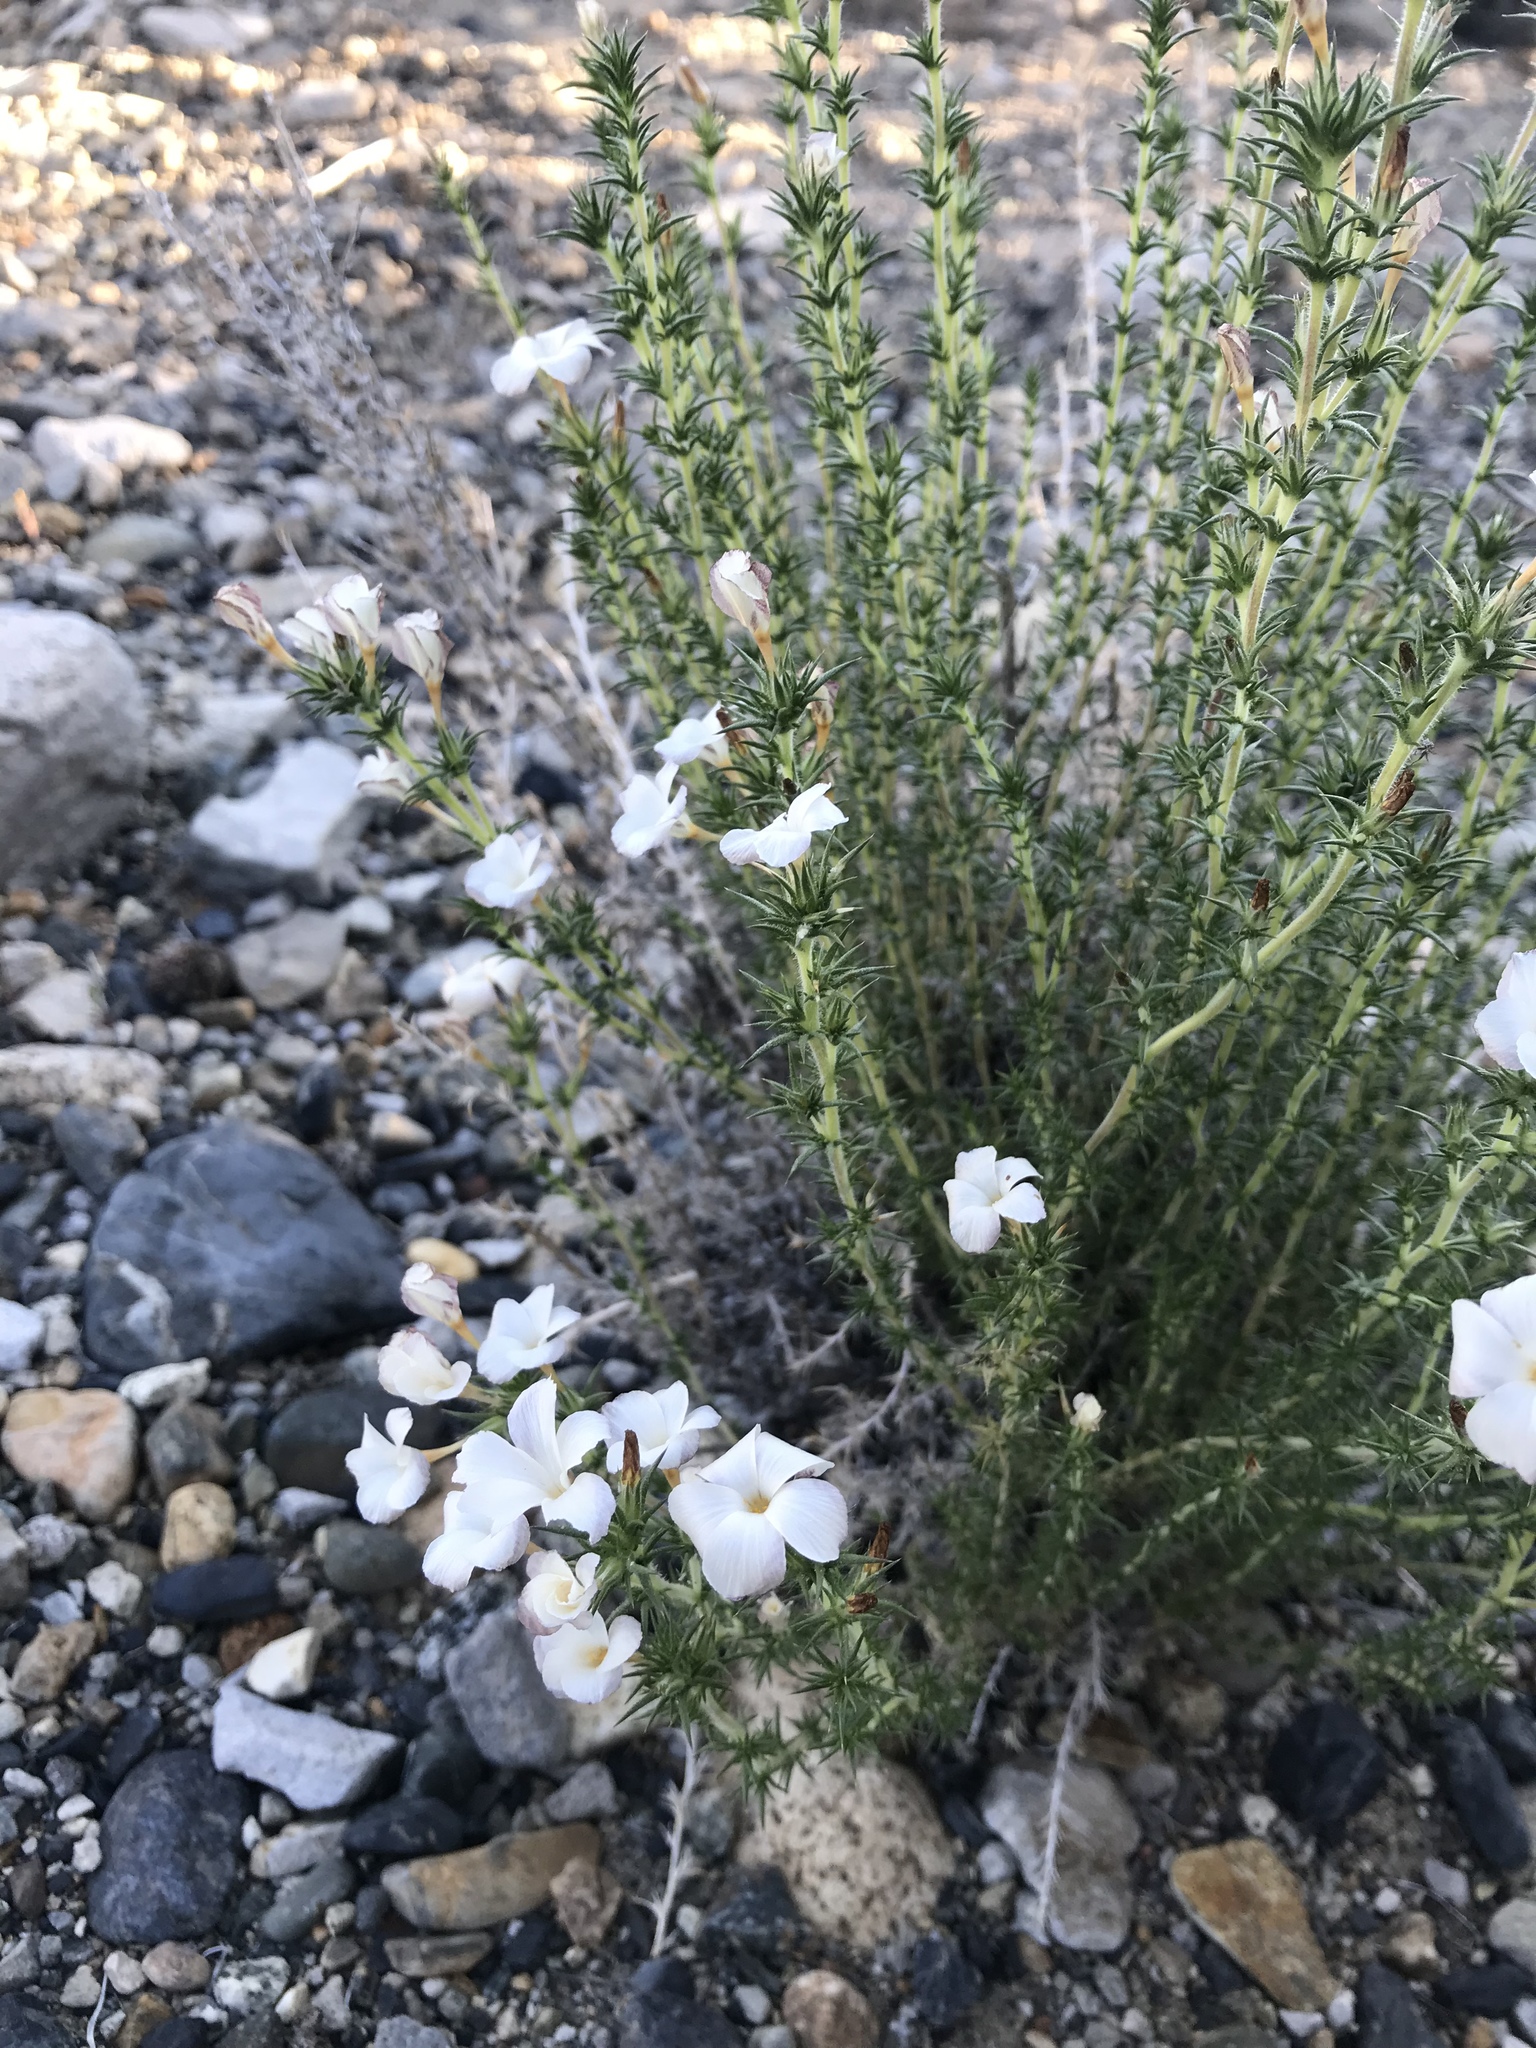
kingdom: Plantae
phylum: Tracheophyta
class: Magnoliopsida
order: Ericales
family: Polemoniaceae
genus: Linanthus
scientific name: Linanthus pungens
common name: Granite prickly phlox
